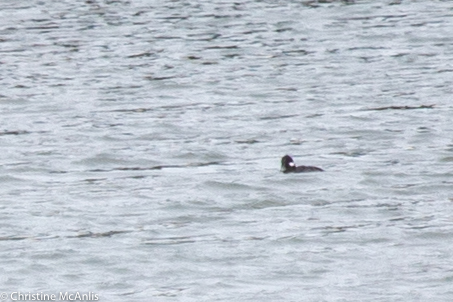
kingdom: Animalia
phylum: Chordata
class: Aves
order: Anseriformes
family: Anatidae
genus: Bucephala
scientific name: Bucephala albeola
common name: Bufflehead
